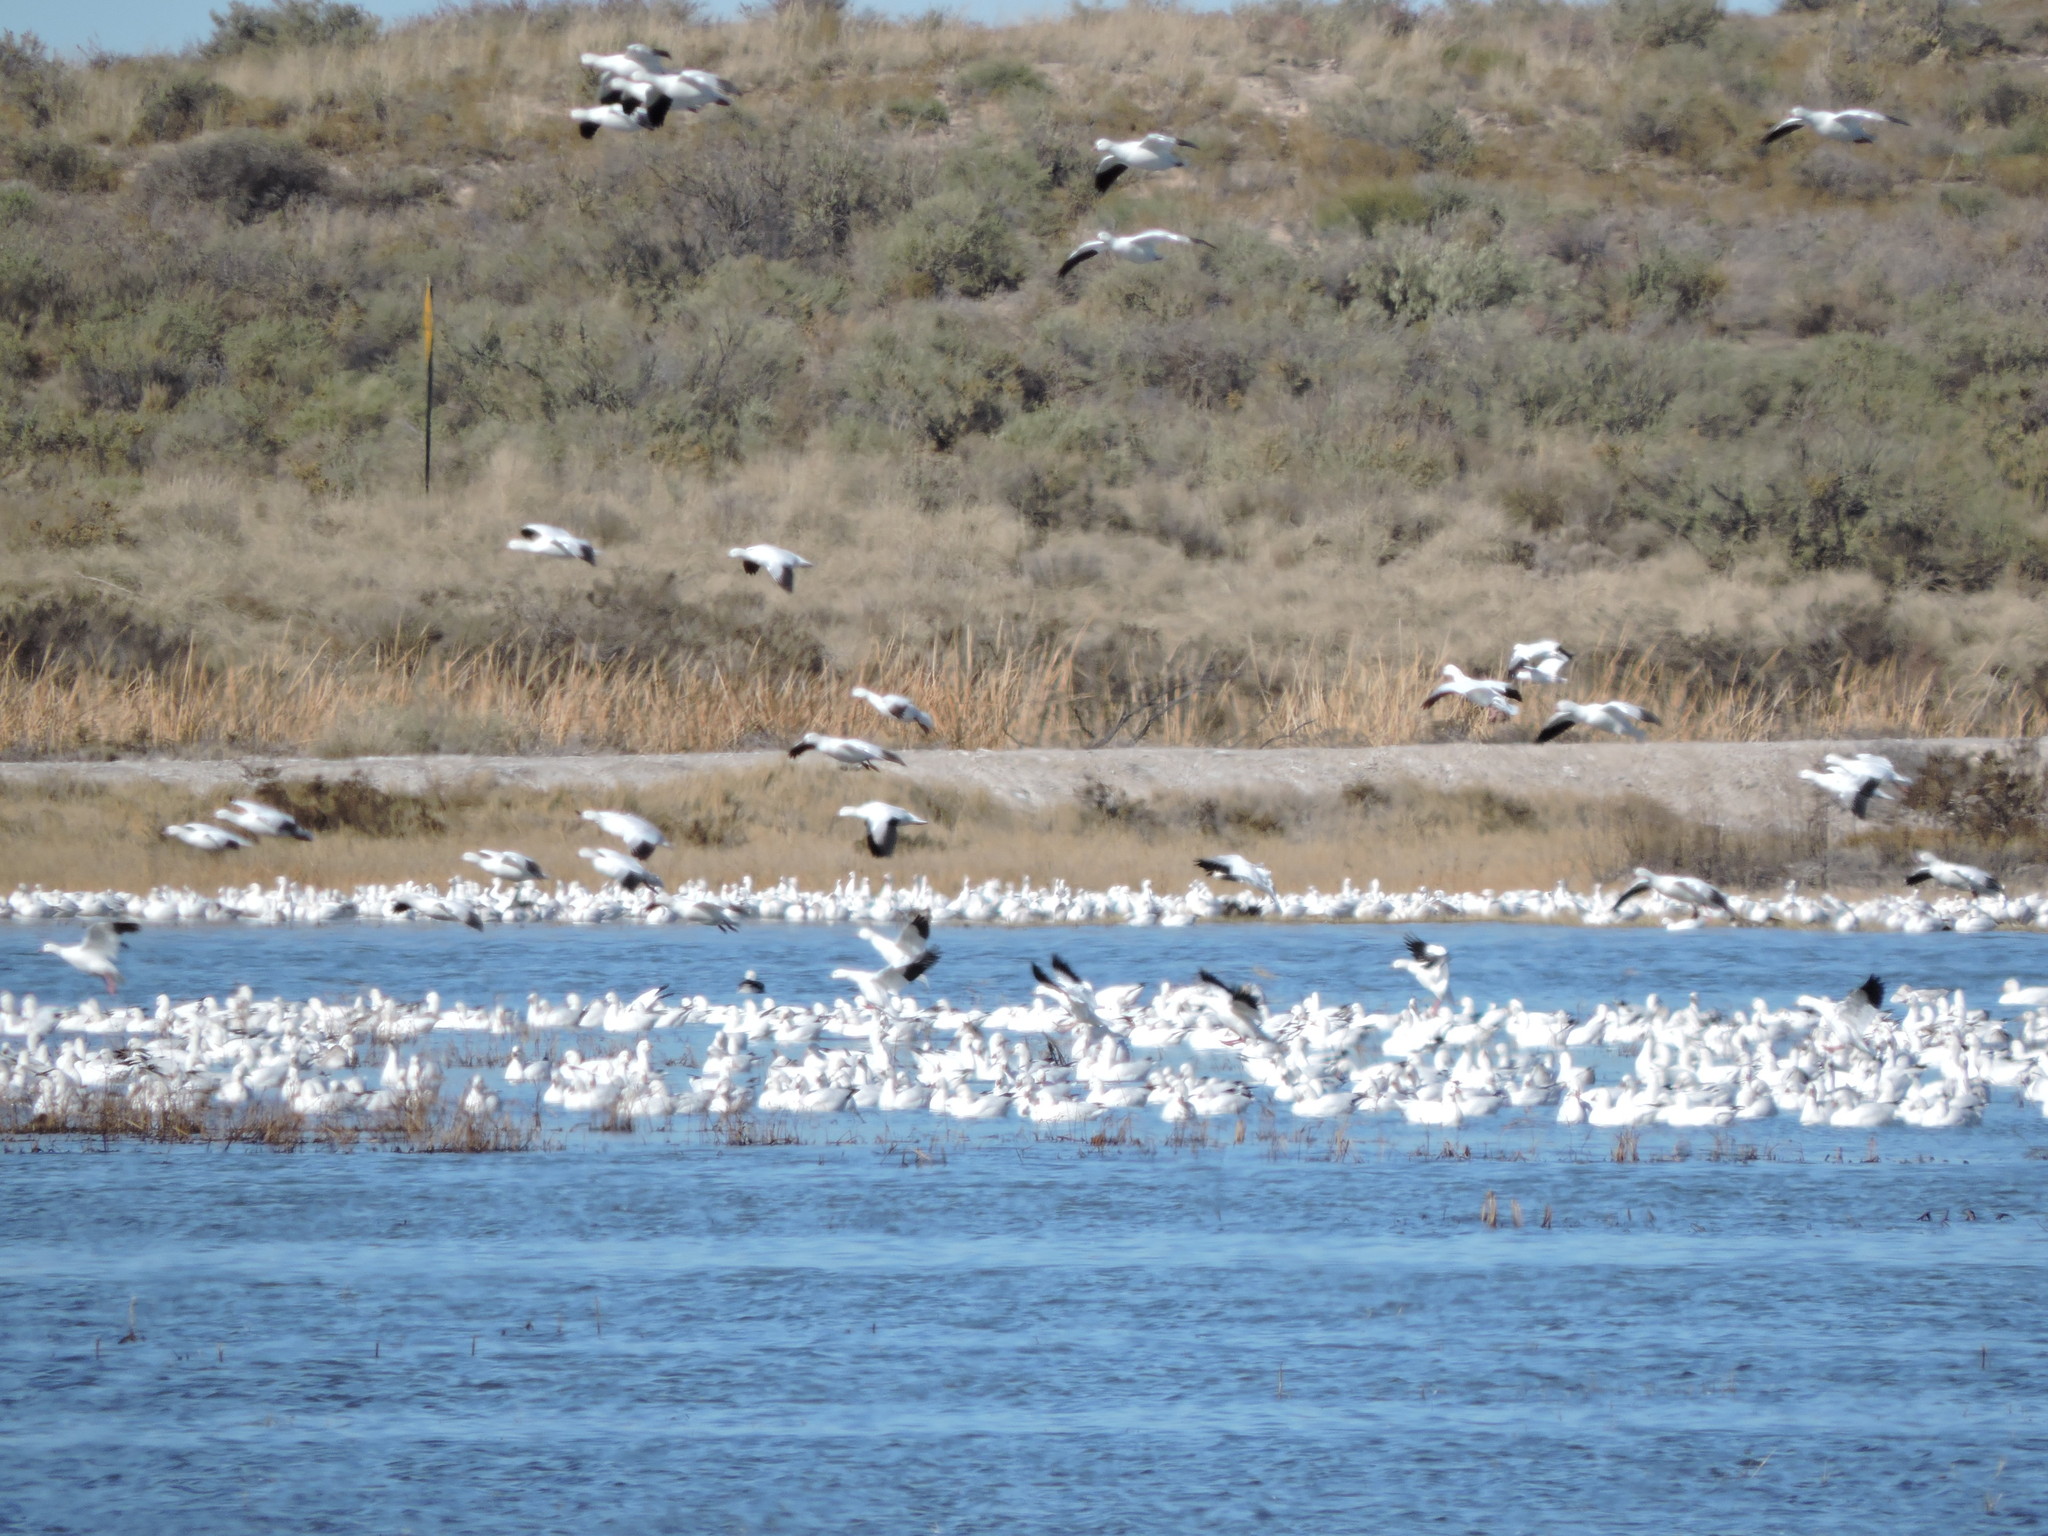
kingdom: Animalia
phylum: Chordata
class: Aves
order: Anseriformes
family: Anatidae
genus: Anser
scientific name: Anser caerulescens
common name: Snow goose
